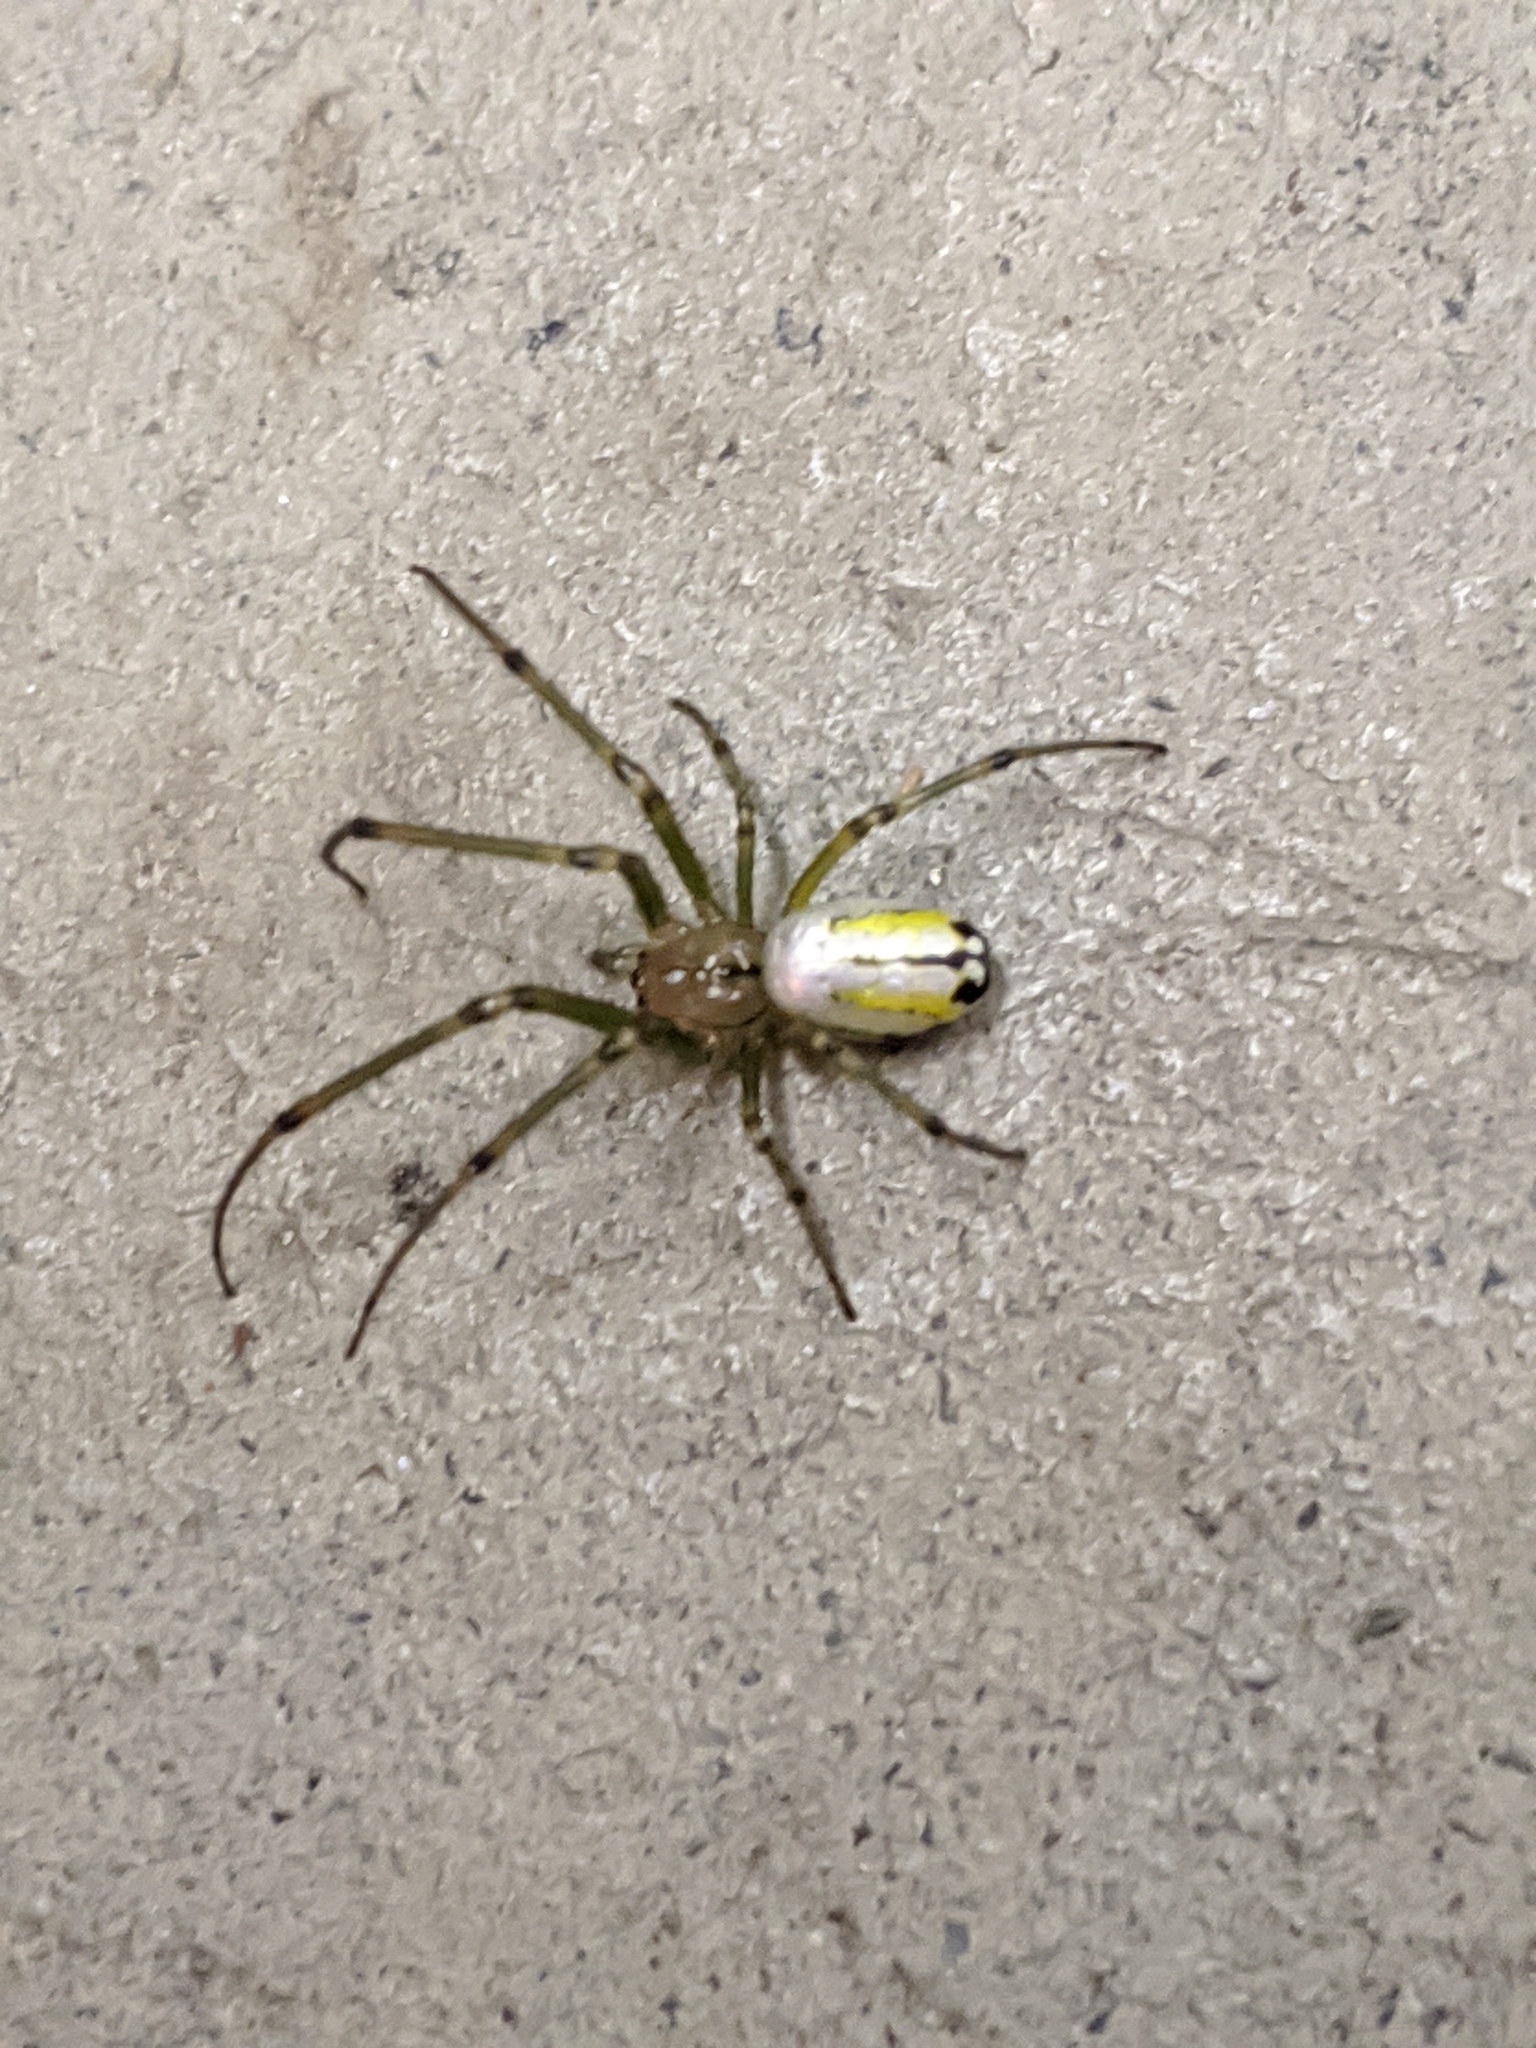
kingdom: Animalia
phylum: Arthropoda
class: Arachnida
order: Araneae
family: Tetragnathidae
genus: Leucauge
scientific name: Leucauge venusta
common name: Longjawed orb weavers
